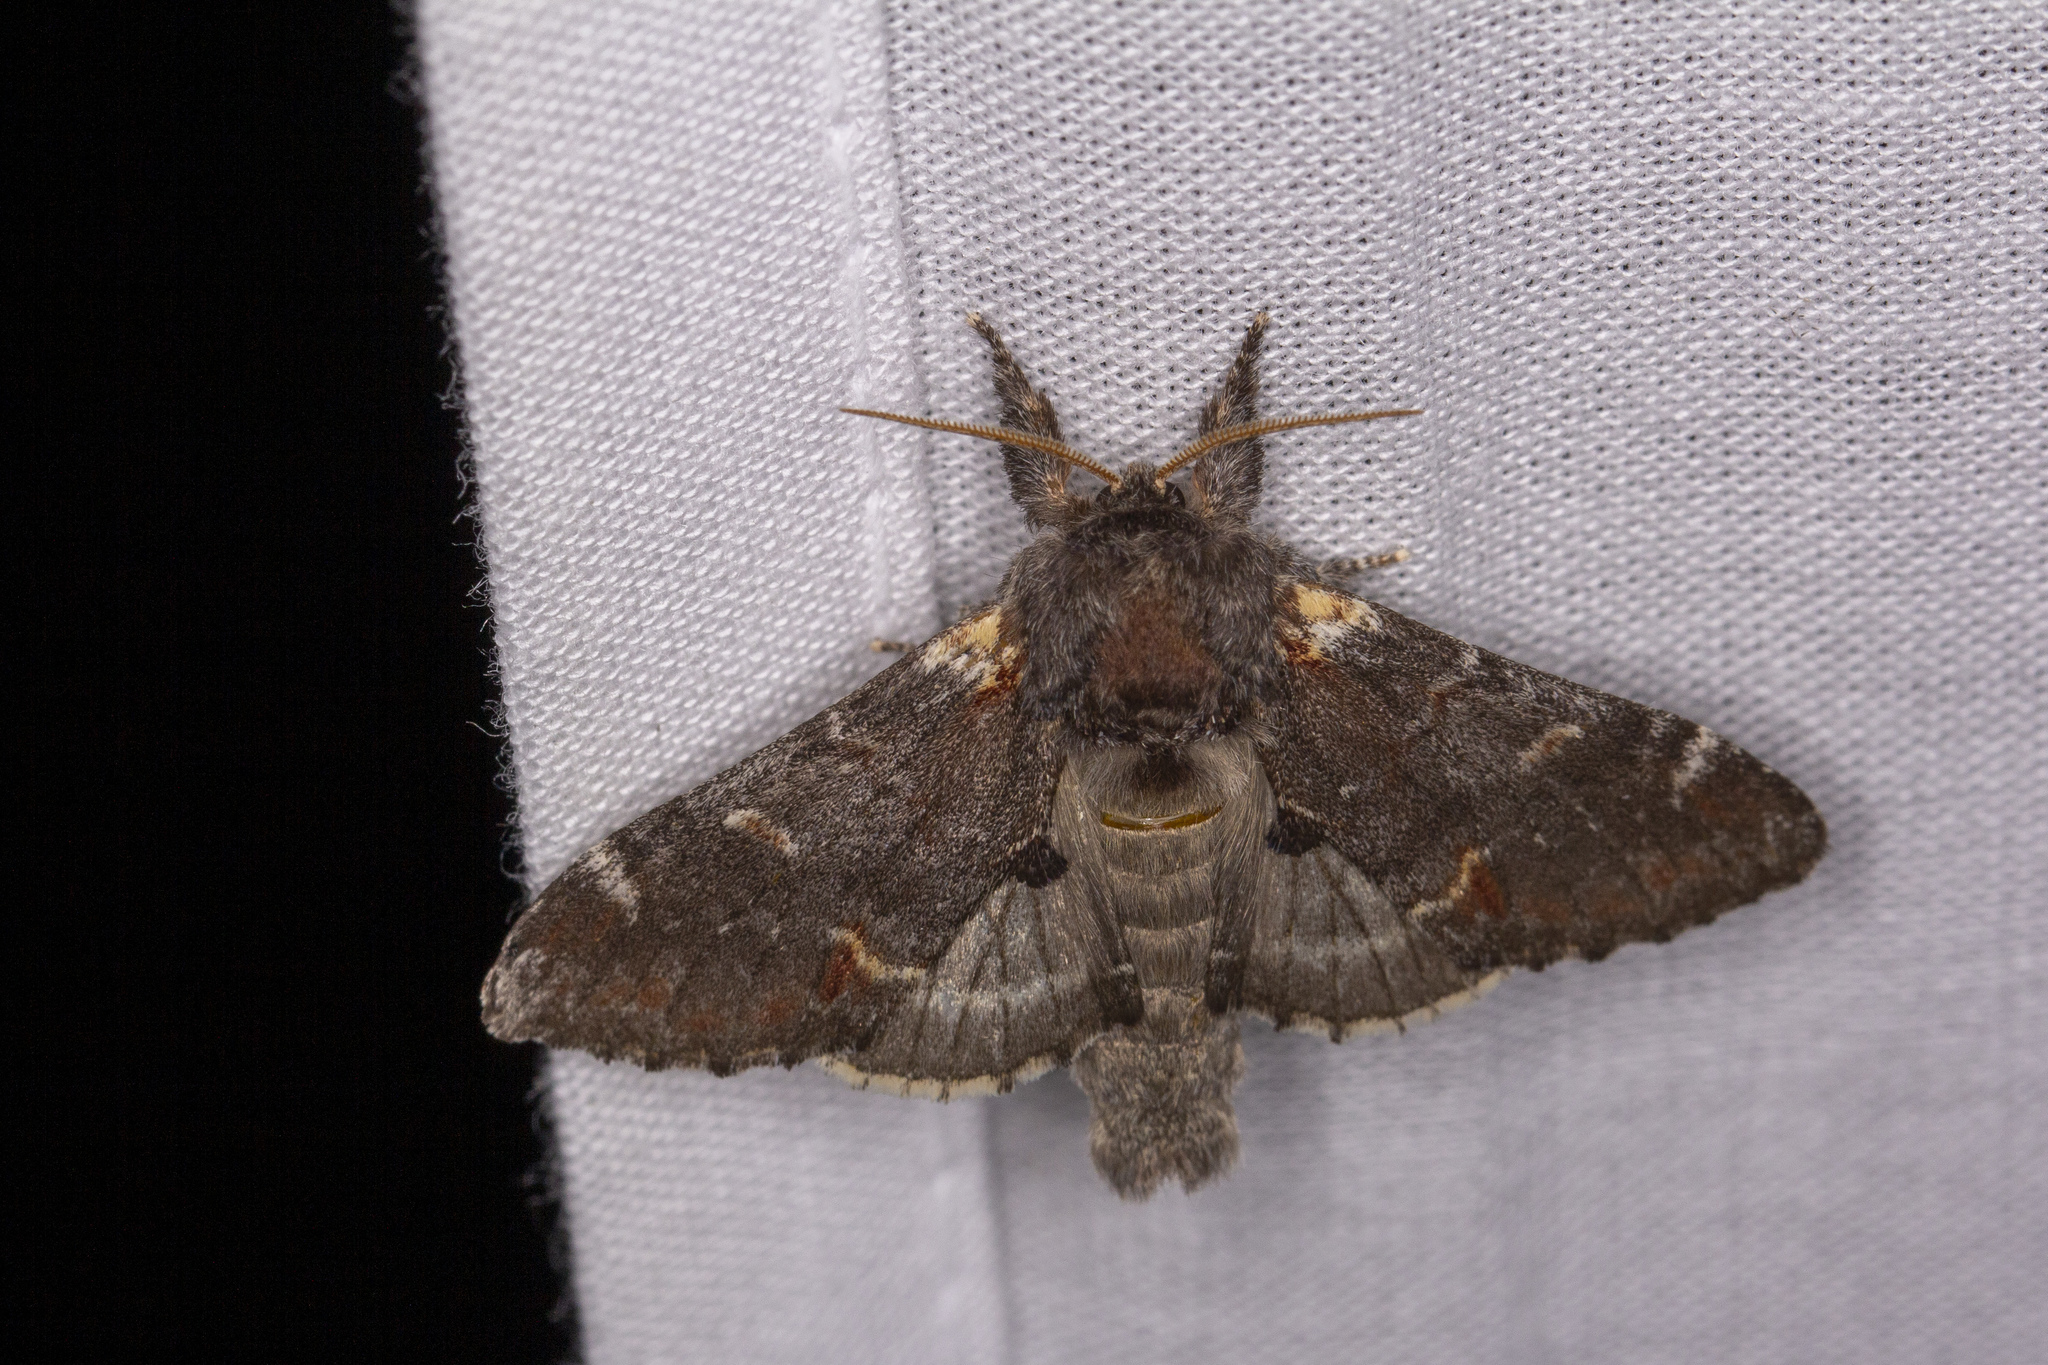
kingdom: Animalia
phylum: Arthropoda
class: Insecta
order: Lepidoptera
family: Notodontidae
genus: Notodonta
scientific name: Notodonta dromedarius
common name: Iron prominent
